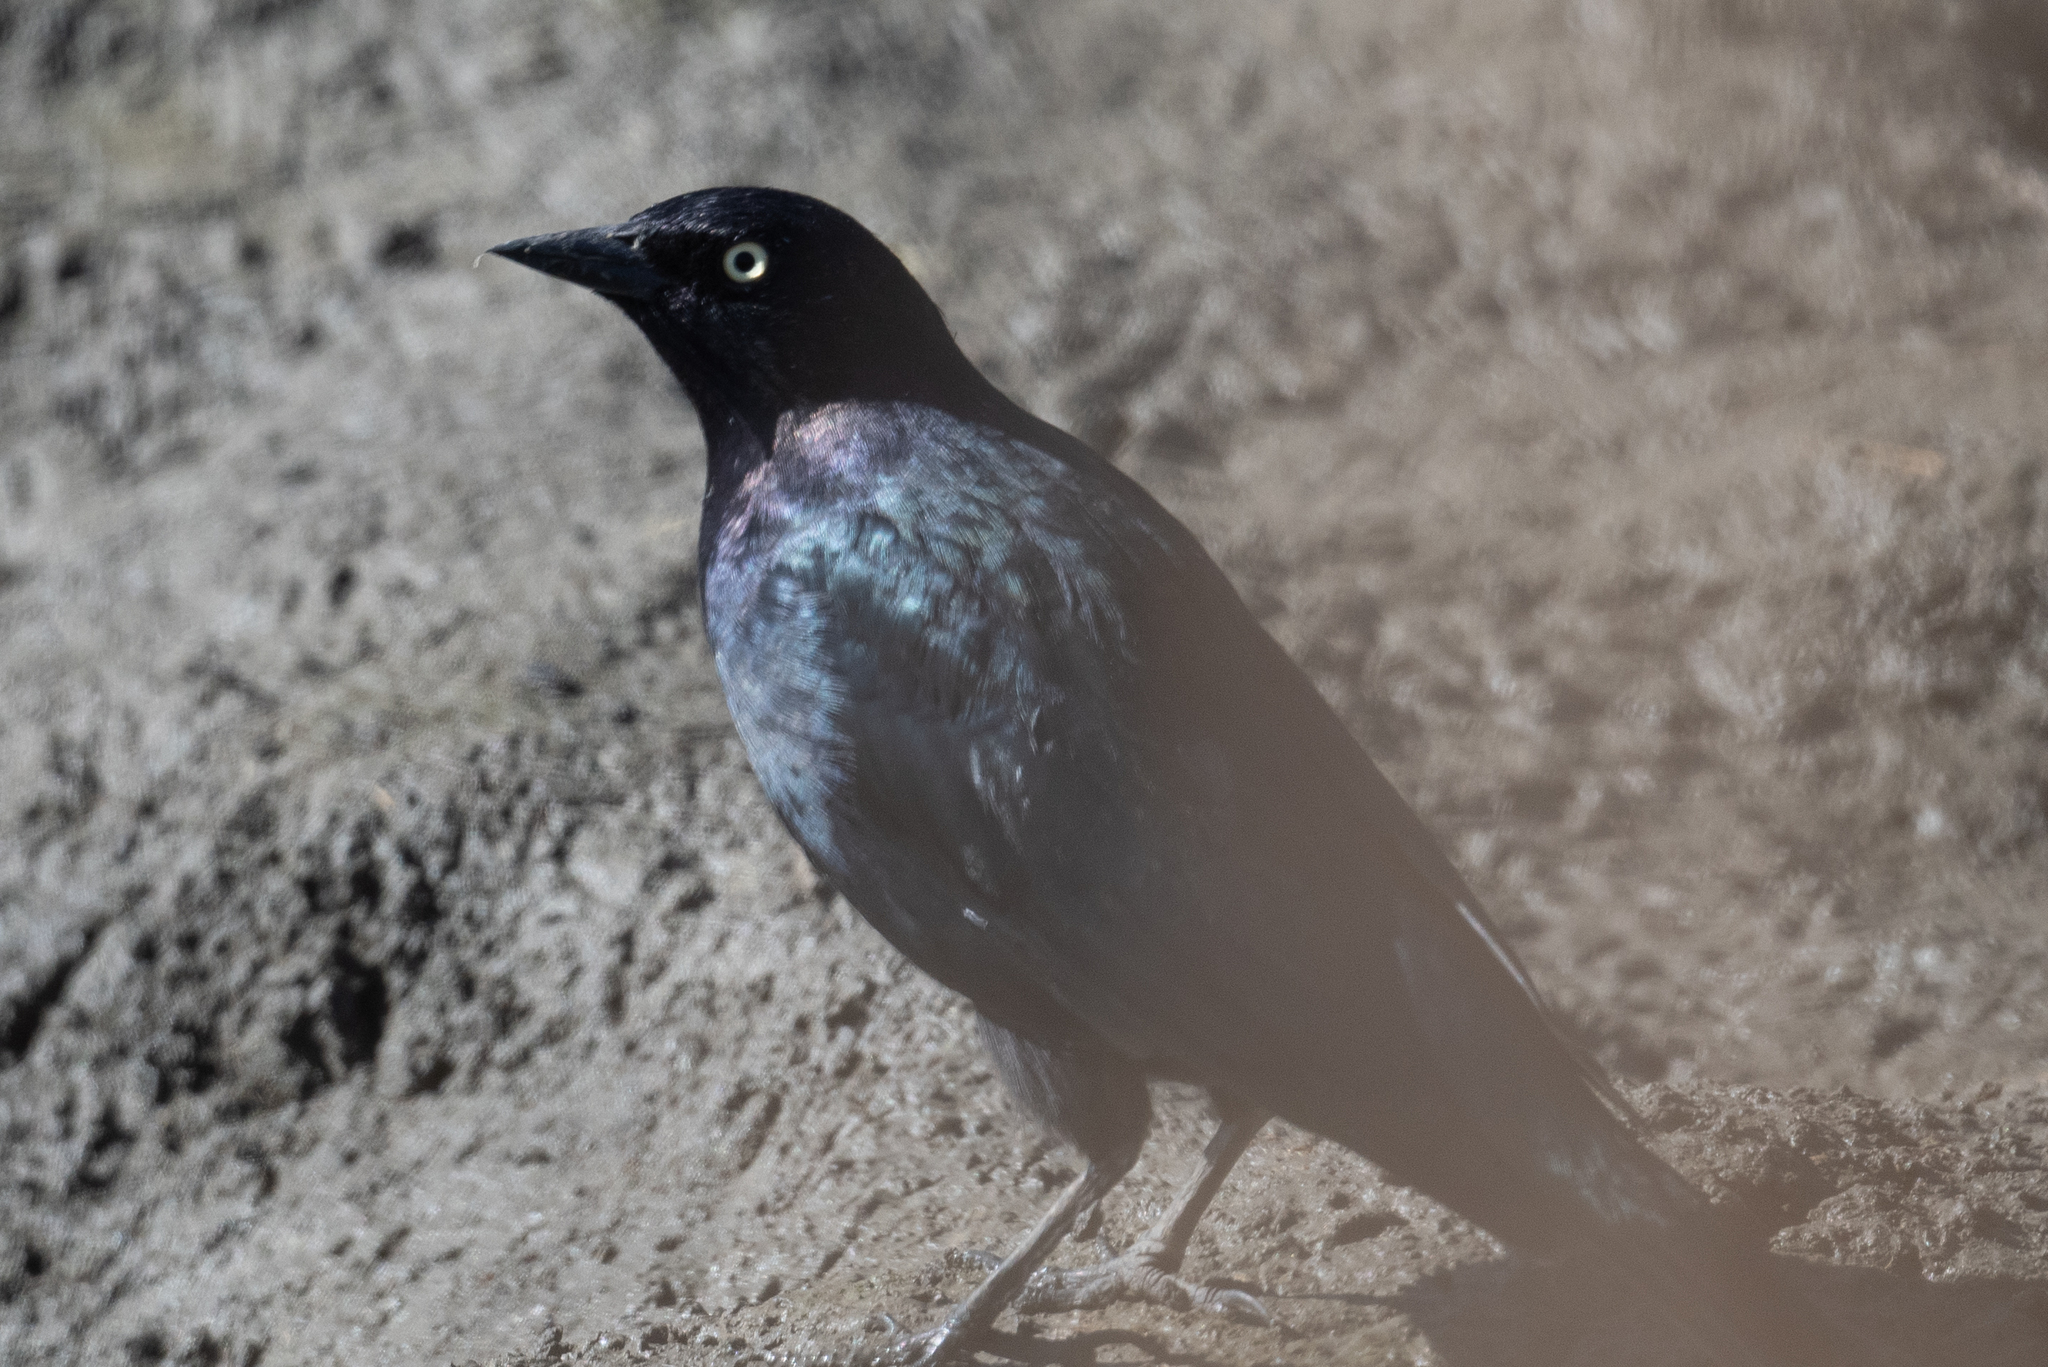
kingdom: Animalia
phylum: Chordata
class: Aves
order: Passeriformes
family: Icteridae
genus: Euphagus
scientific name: Euphagus cyanocephalus
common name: Brewer's blackbird
